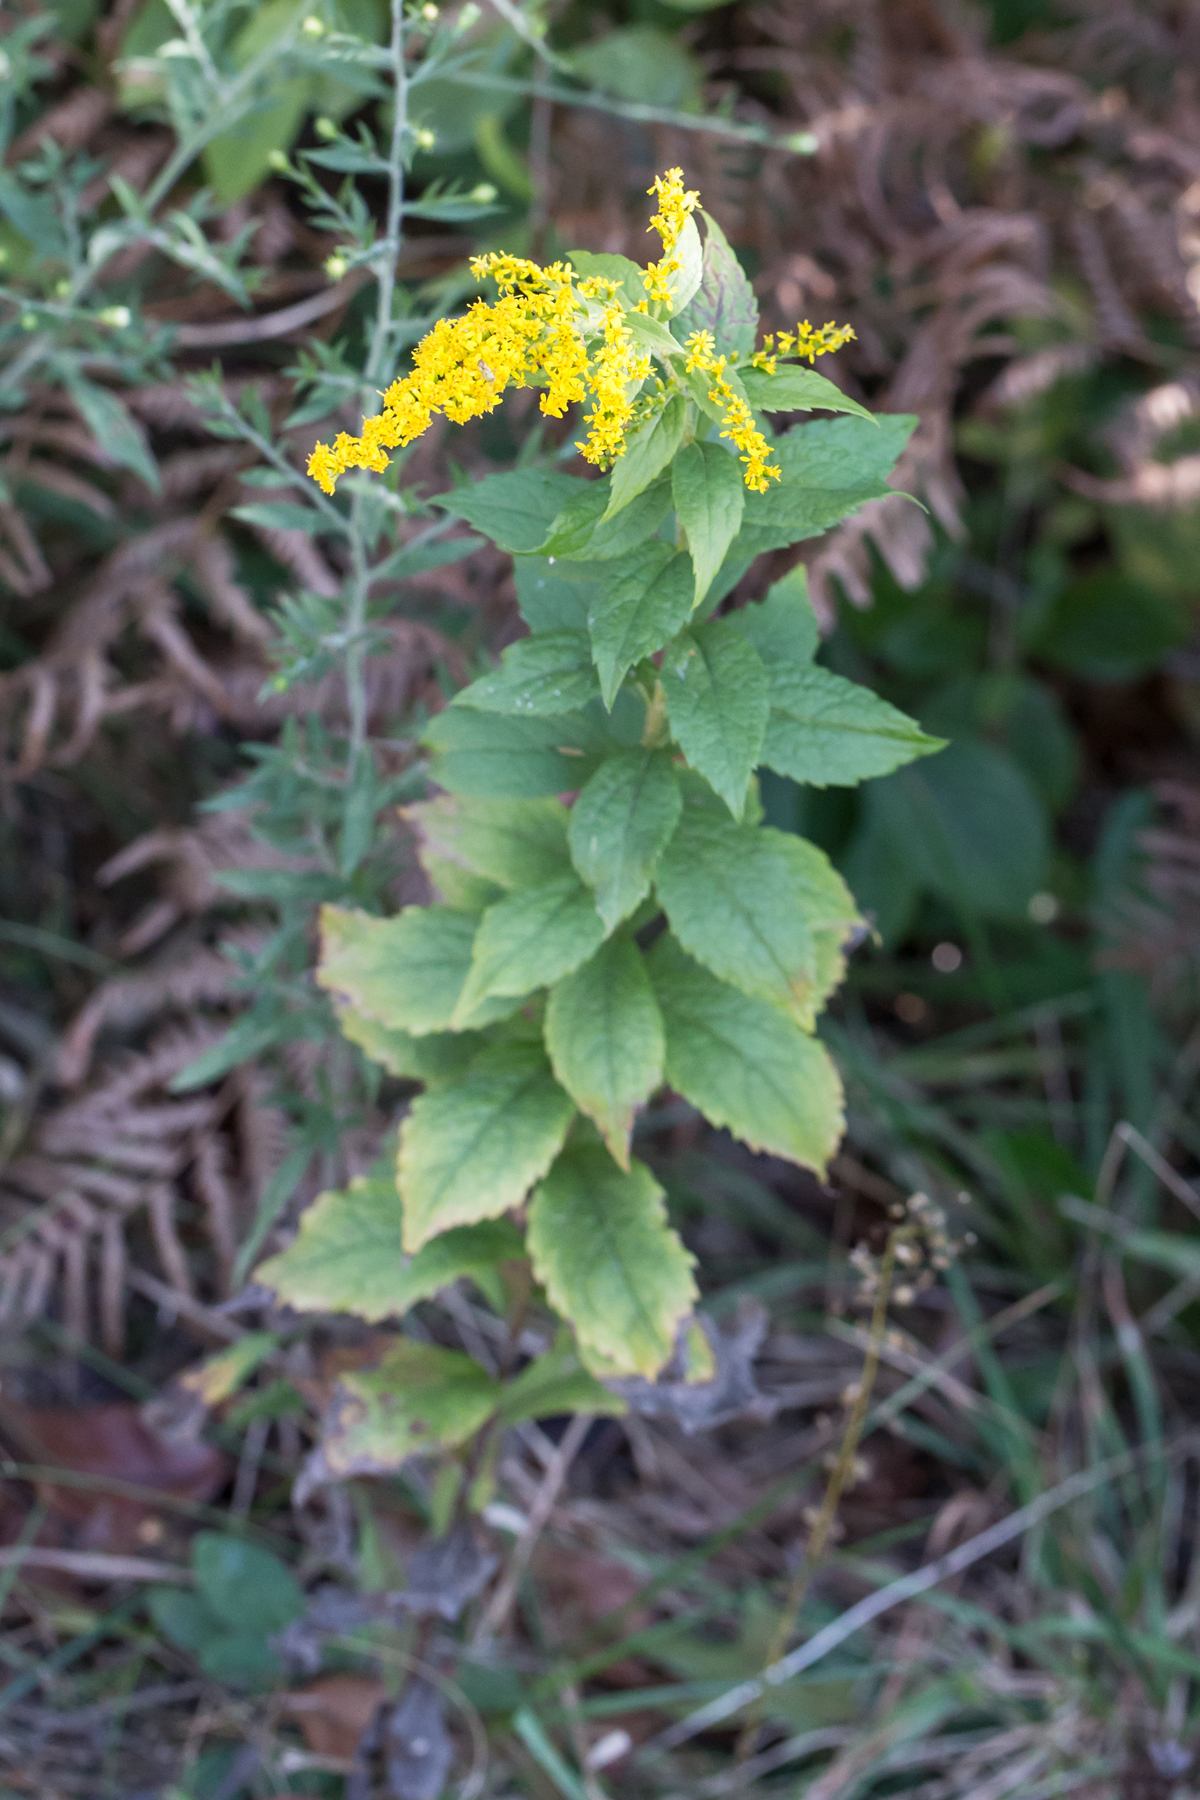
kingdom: Plantae
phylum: Tracheophyta
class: Magnoliopsida
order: Asterales
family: Asteraceae
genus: Solidago
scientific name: Solidago rugosa
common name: Rough-stemmed goldenrod
